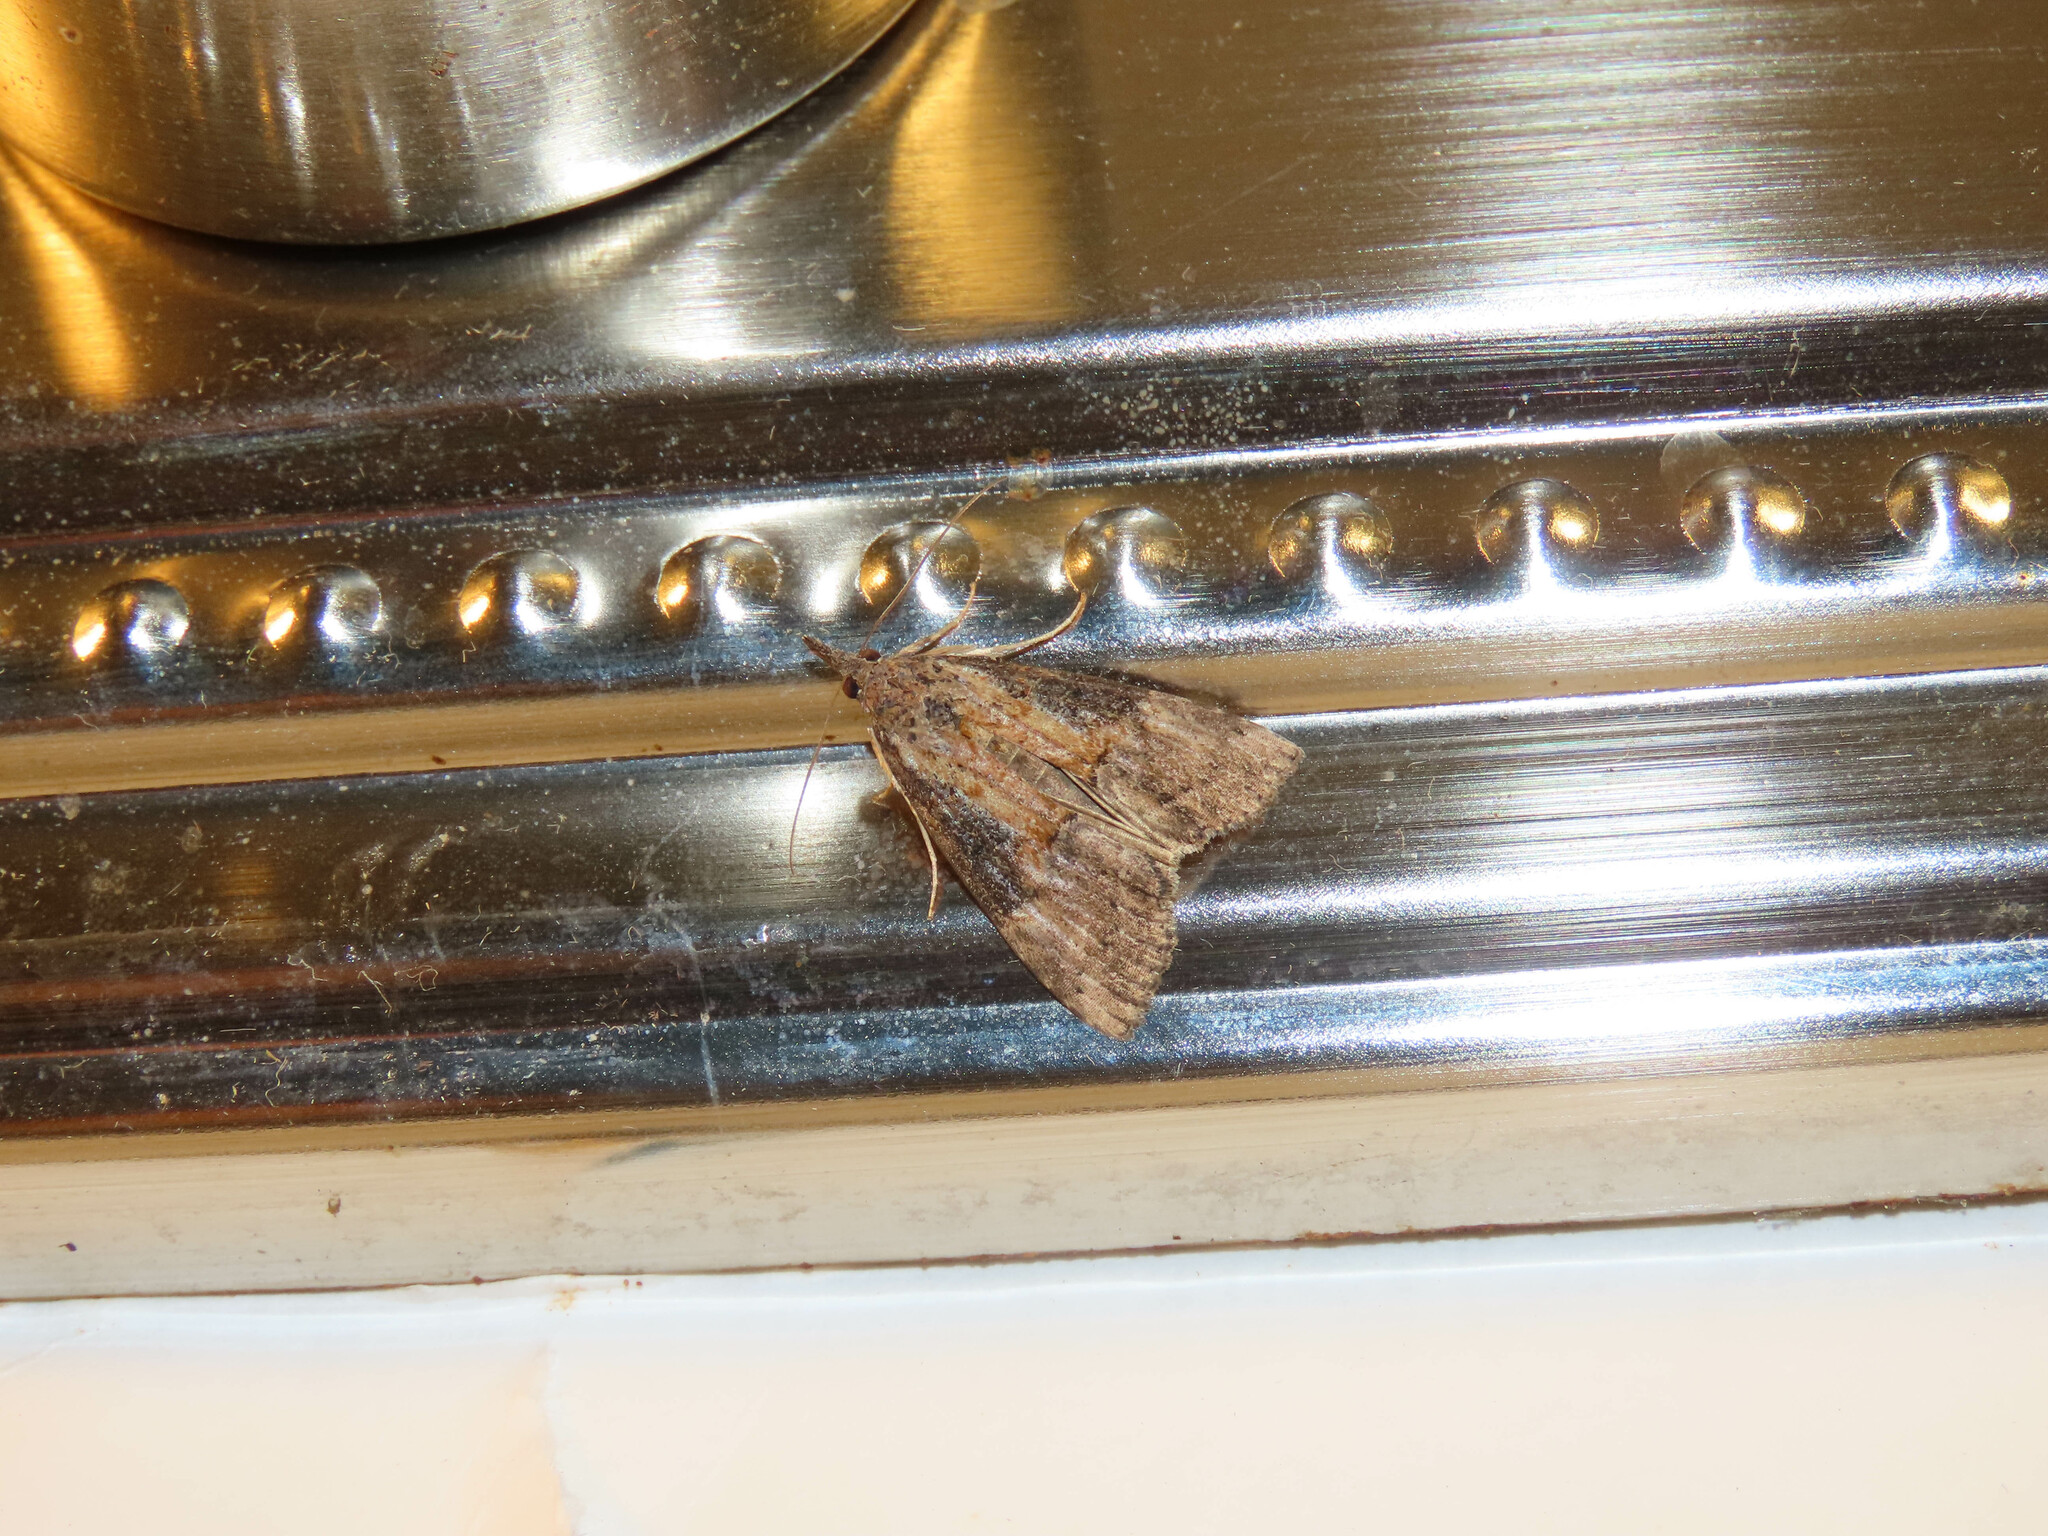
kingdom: Animalia
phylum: Arthropoda
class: Insecta
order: Lepidoptera
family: Erebidae
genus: Hypena
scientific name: Hypena scabra
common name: Green cloverworm
